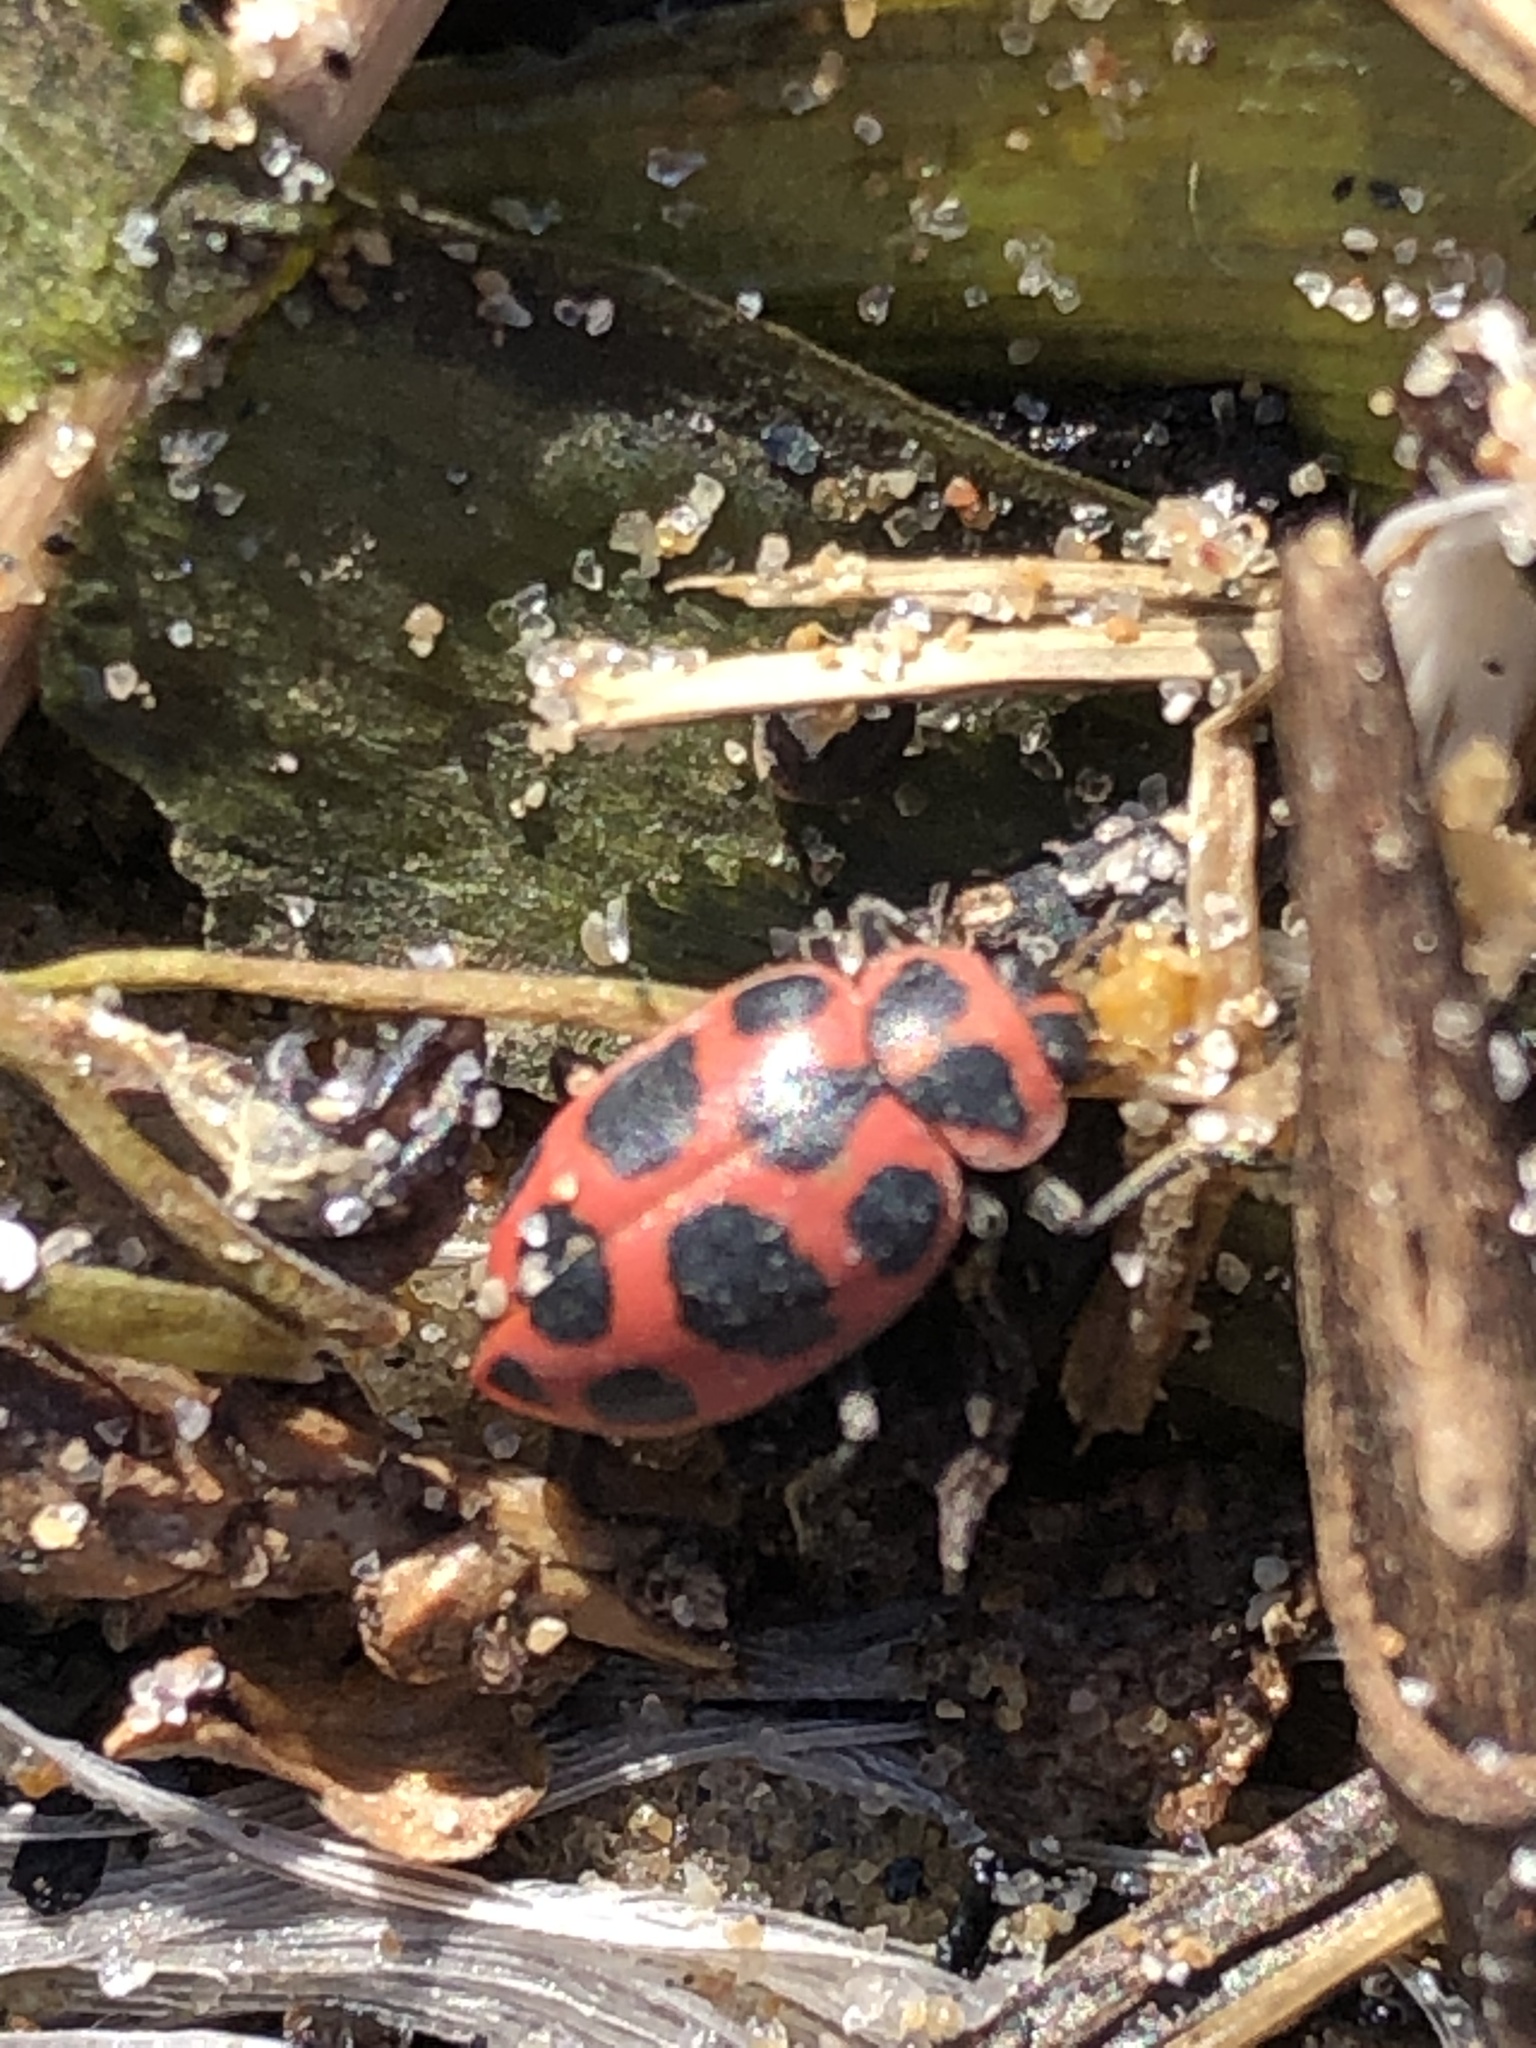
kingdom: Animalia
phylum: Arthropoda
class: Insecta
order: Coleoptera
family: Coccinellidae
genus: Coleomegilla
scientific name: Coleomegilla maculata
